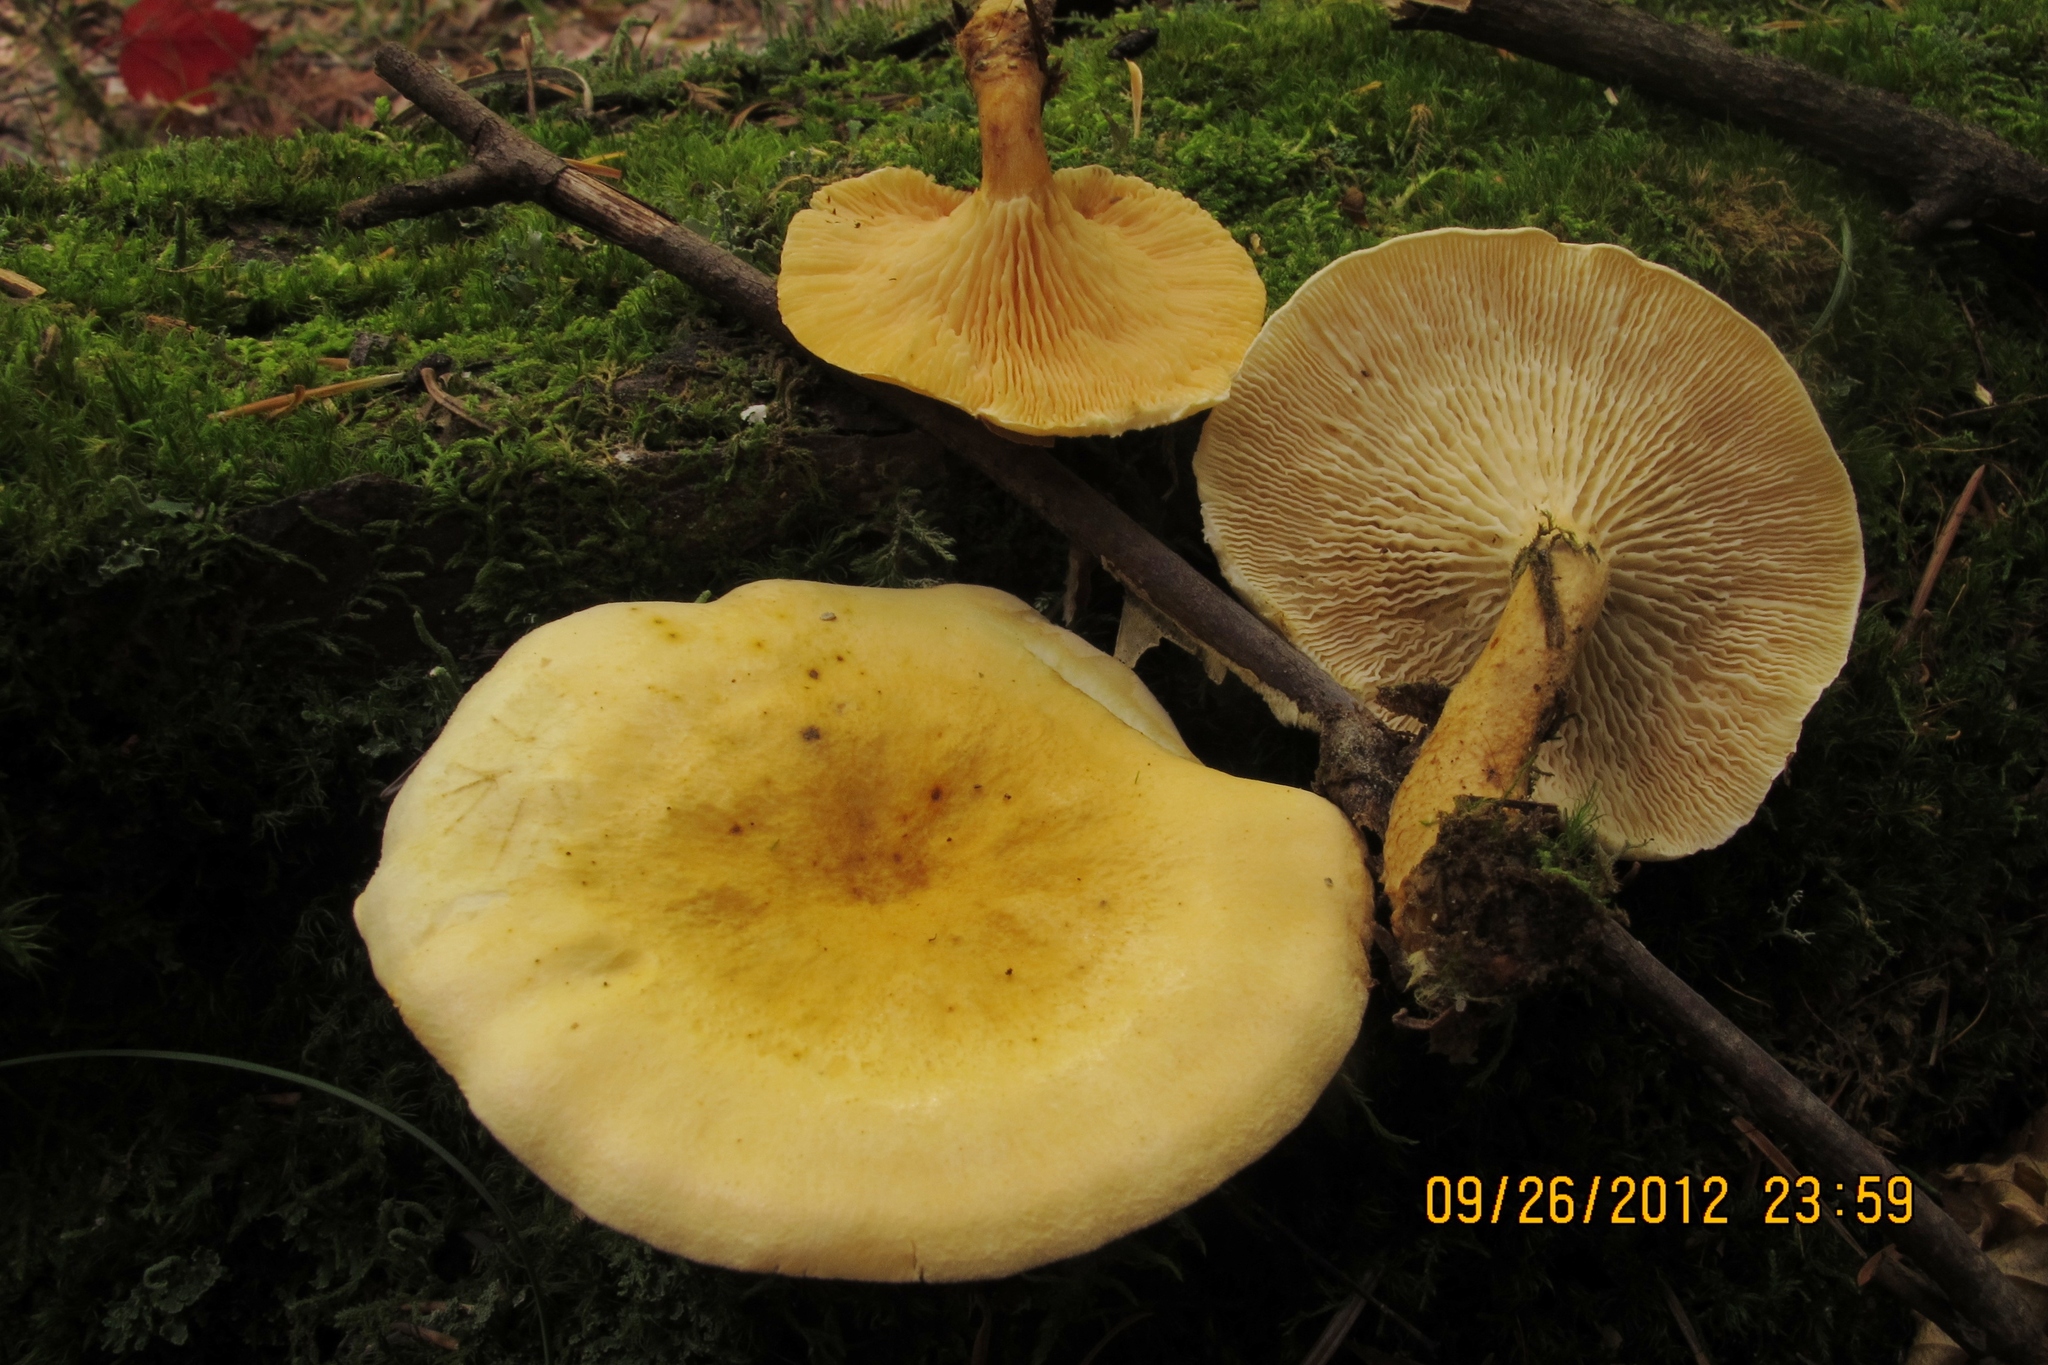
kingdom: Fungi
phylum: Basidiomycota
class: Agaricomycetes
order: Boletales
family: Hygrophoropsidaceae
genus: Hygrophoropsis
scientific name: Hygrophoropsis aurantiaca
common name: False chanterelle
